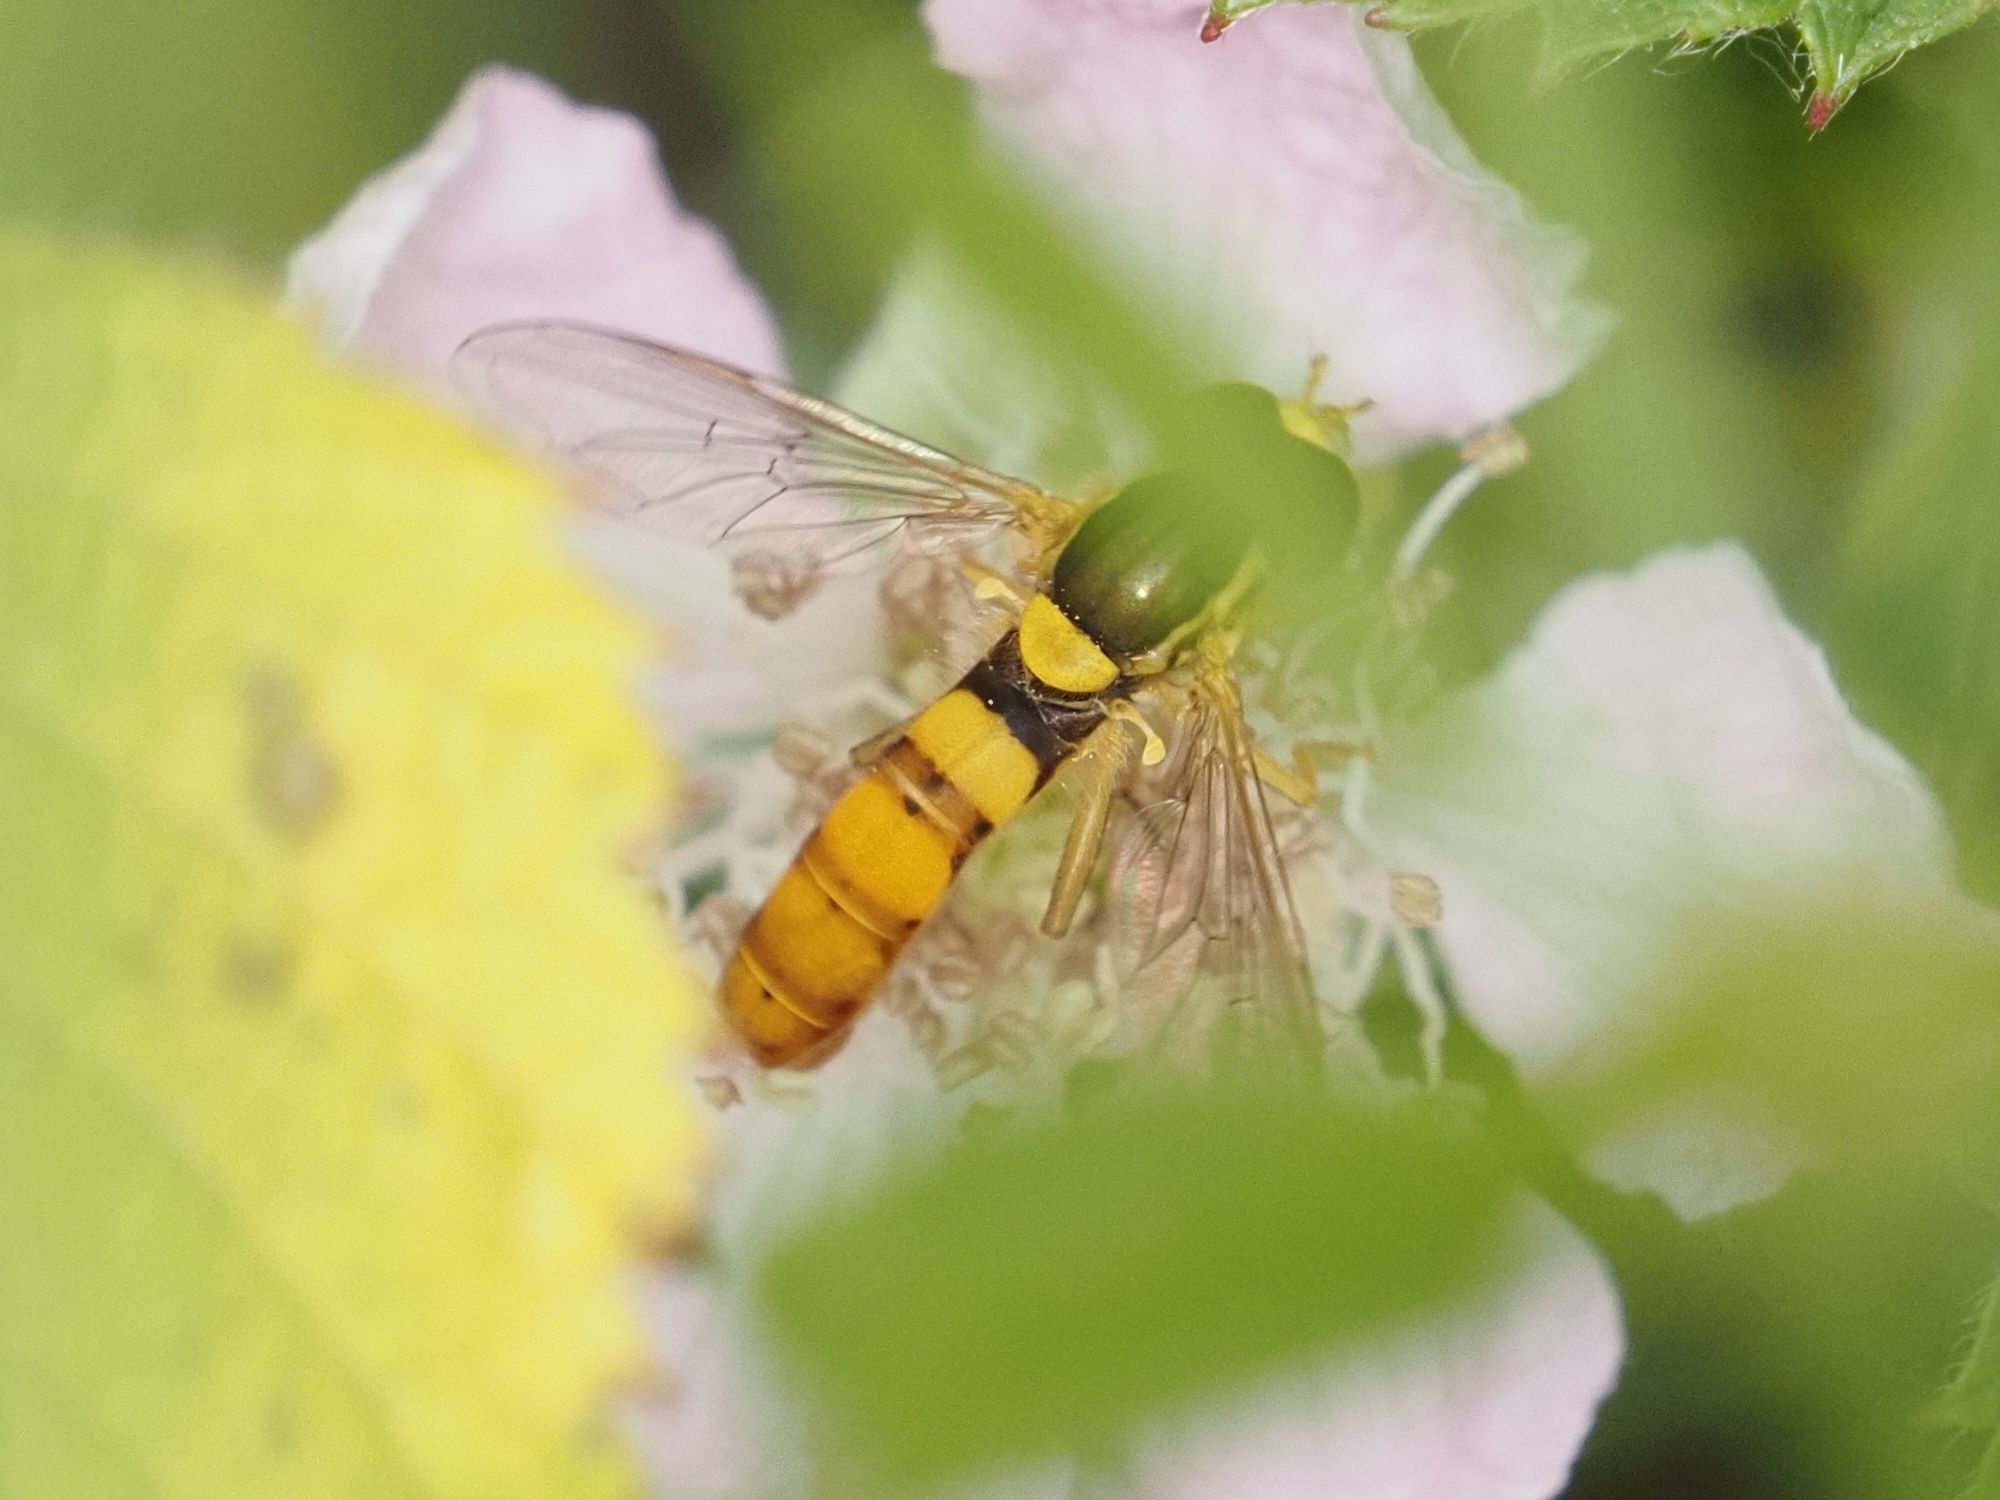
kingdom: Animalia
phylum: Arthropoda
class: Insecta
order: Diptera
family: Syrphidae
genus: Sphaerophoria
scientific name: Sphaerophoria
